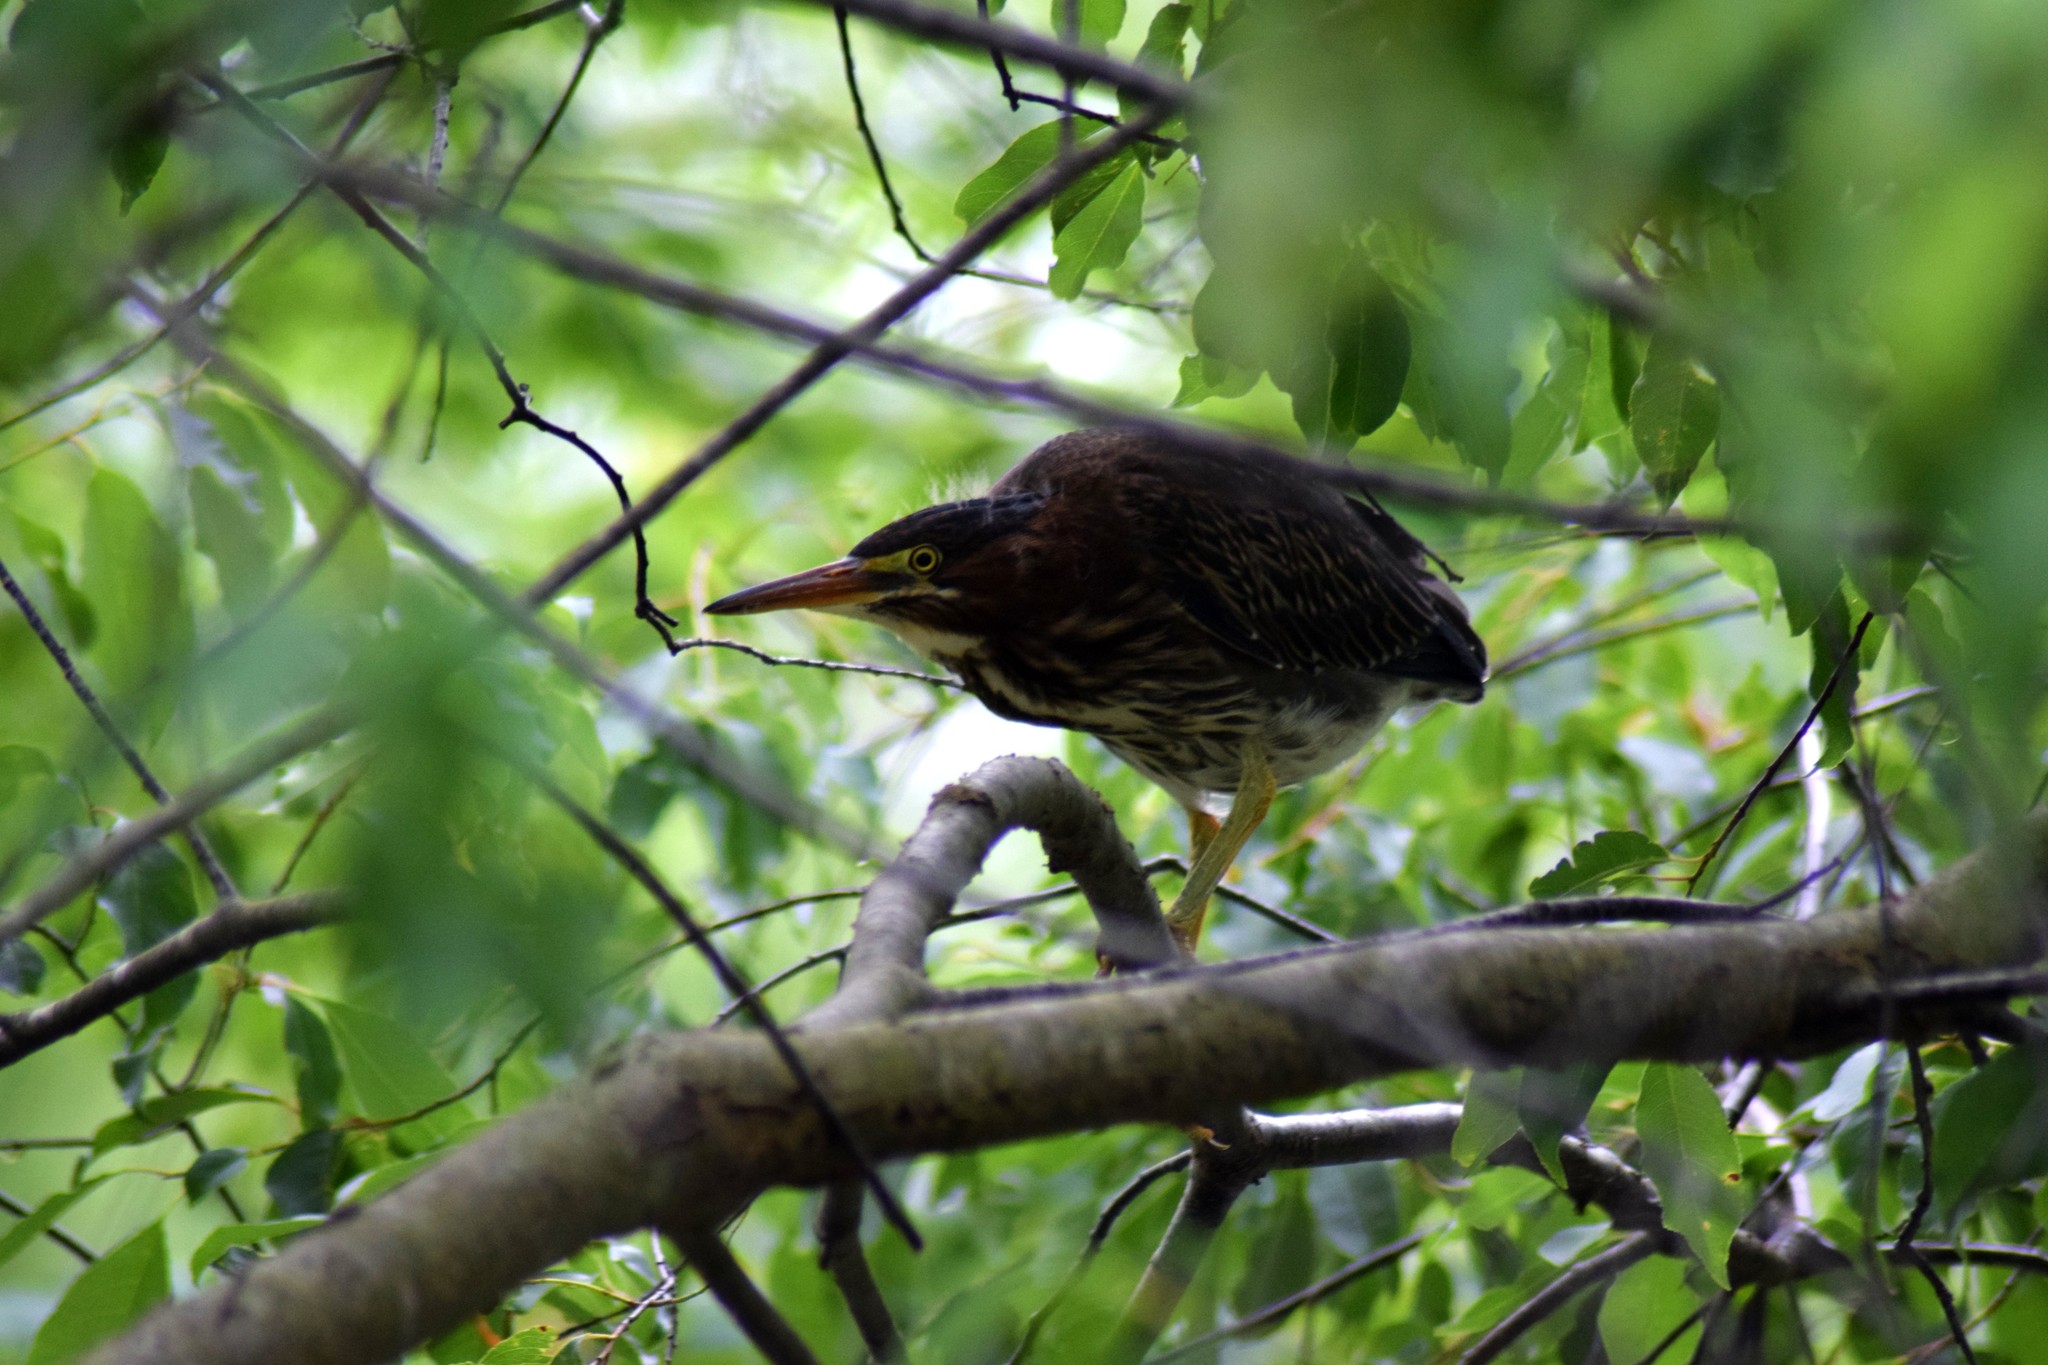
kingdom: Animalia
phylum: Chordata
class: Aves
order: Pelecaniformes
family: Ardeidae
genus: Butorides
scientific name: Butorides virescens
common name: Green heron
